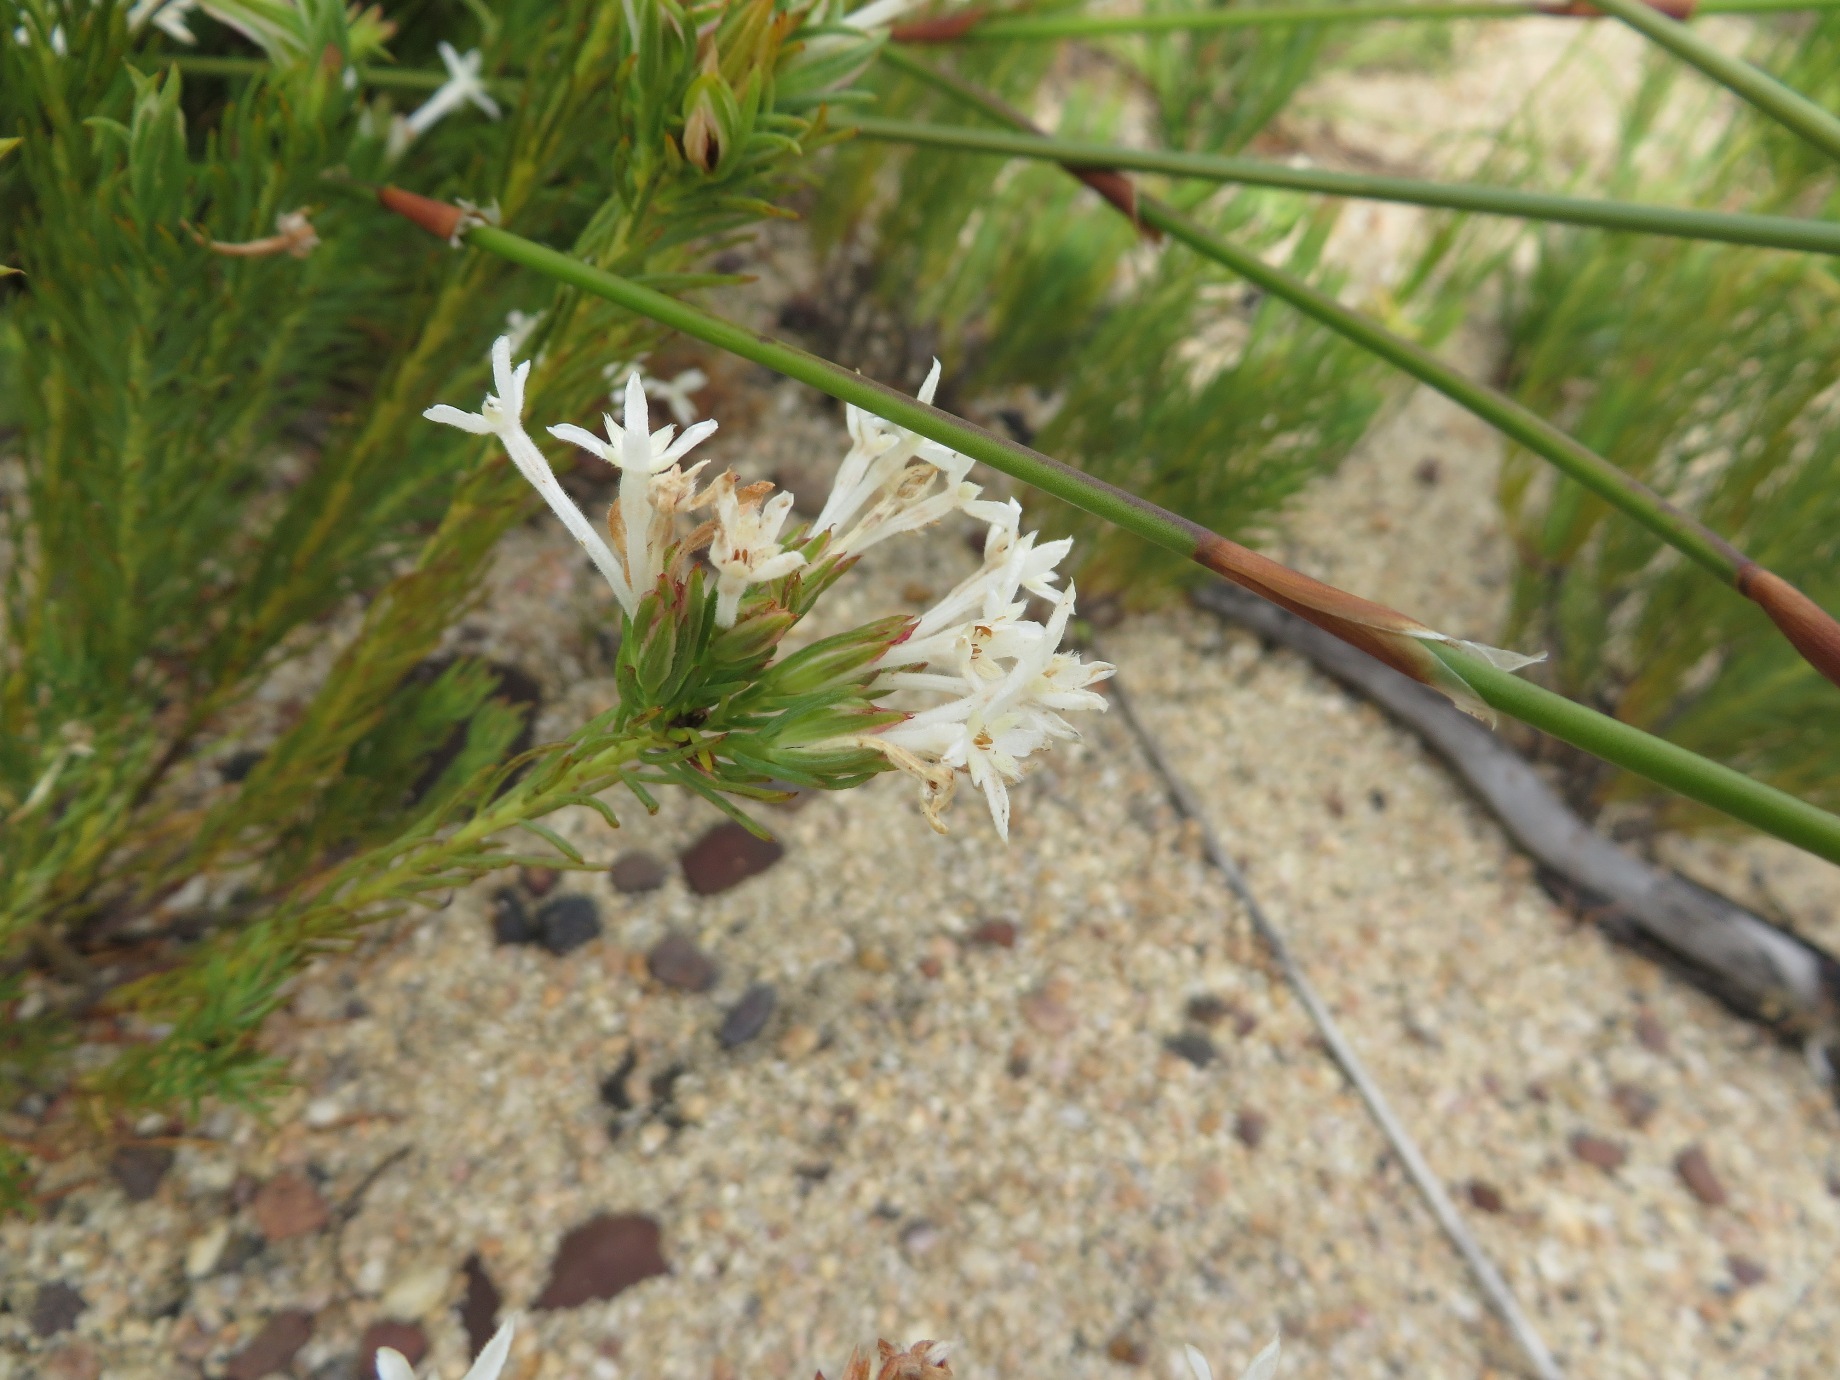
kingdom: Plantae
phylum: Tracheophyta
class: Magnoliopsida
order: Malvales
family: Thymelaeaceae
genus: Gnidia
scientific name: Gnidia pinifolia
